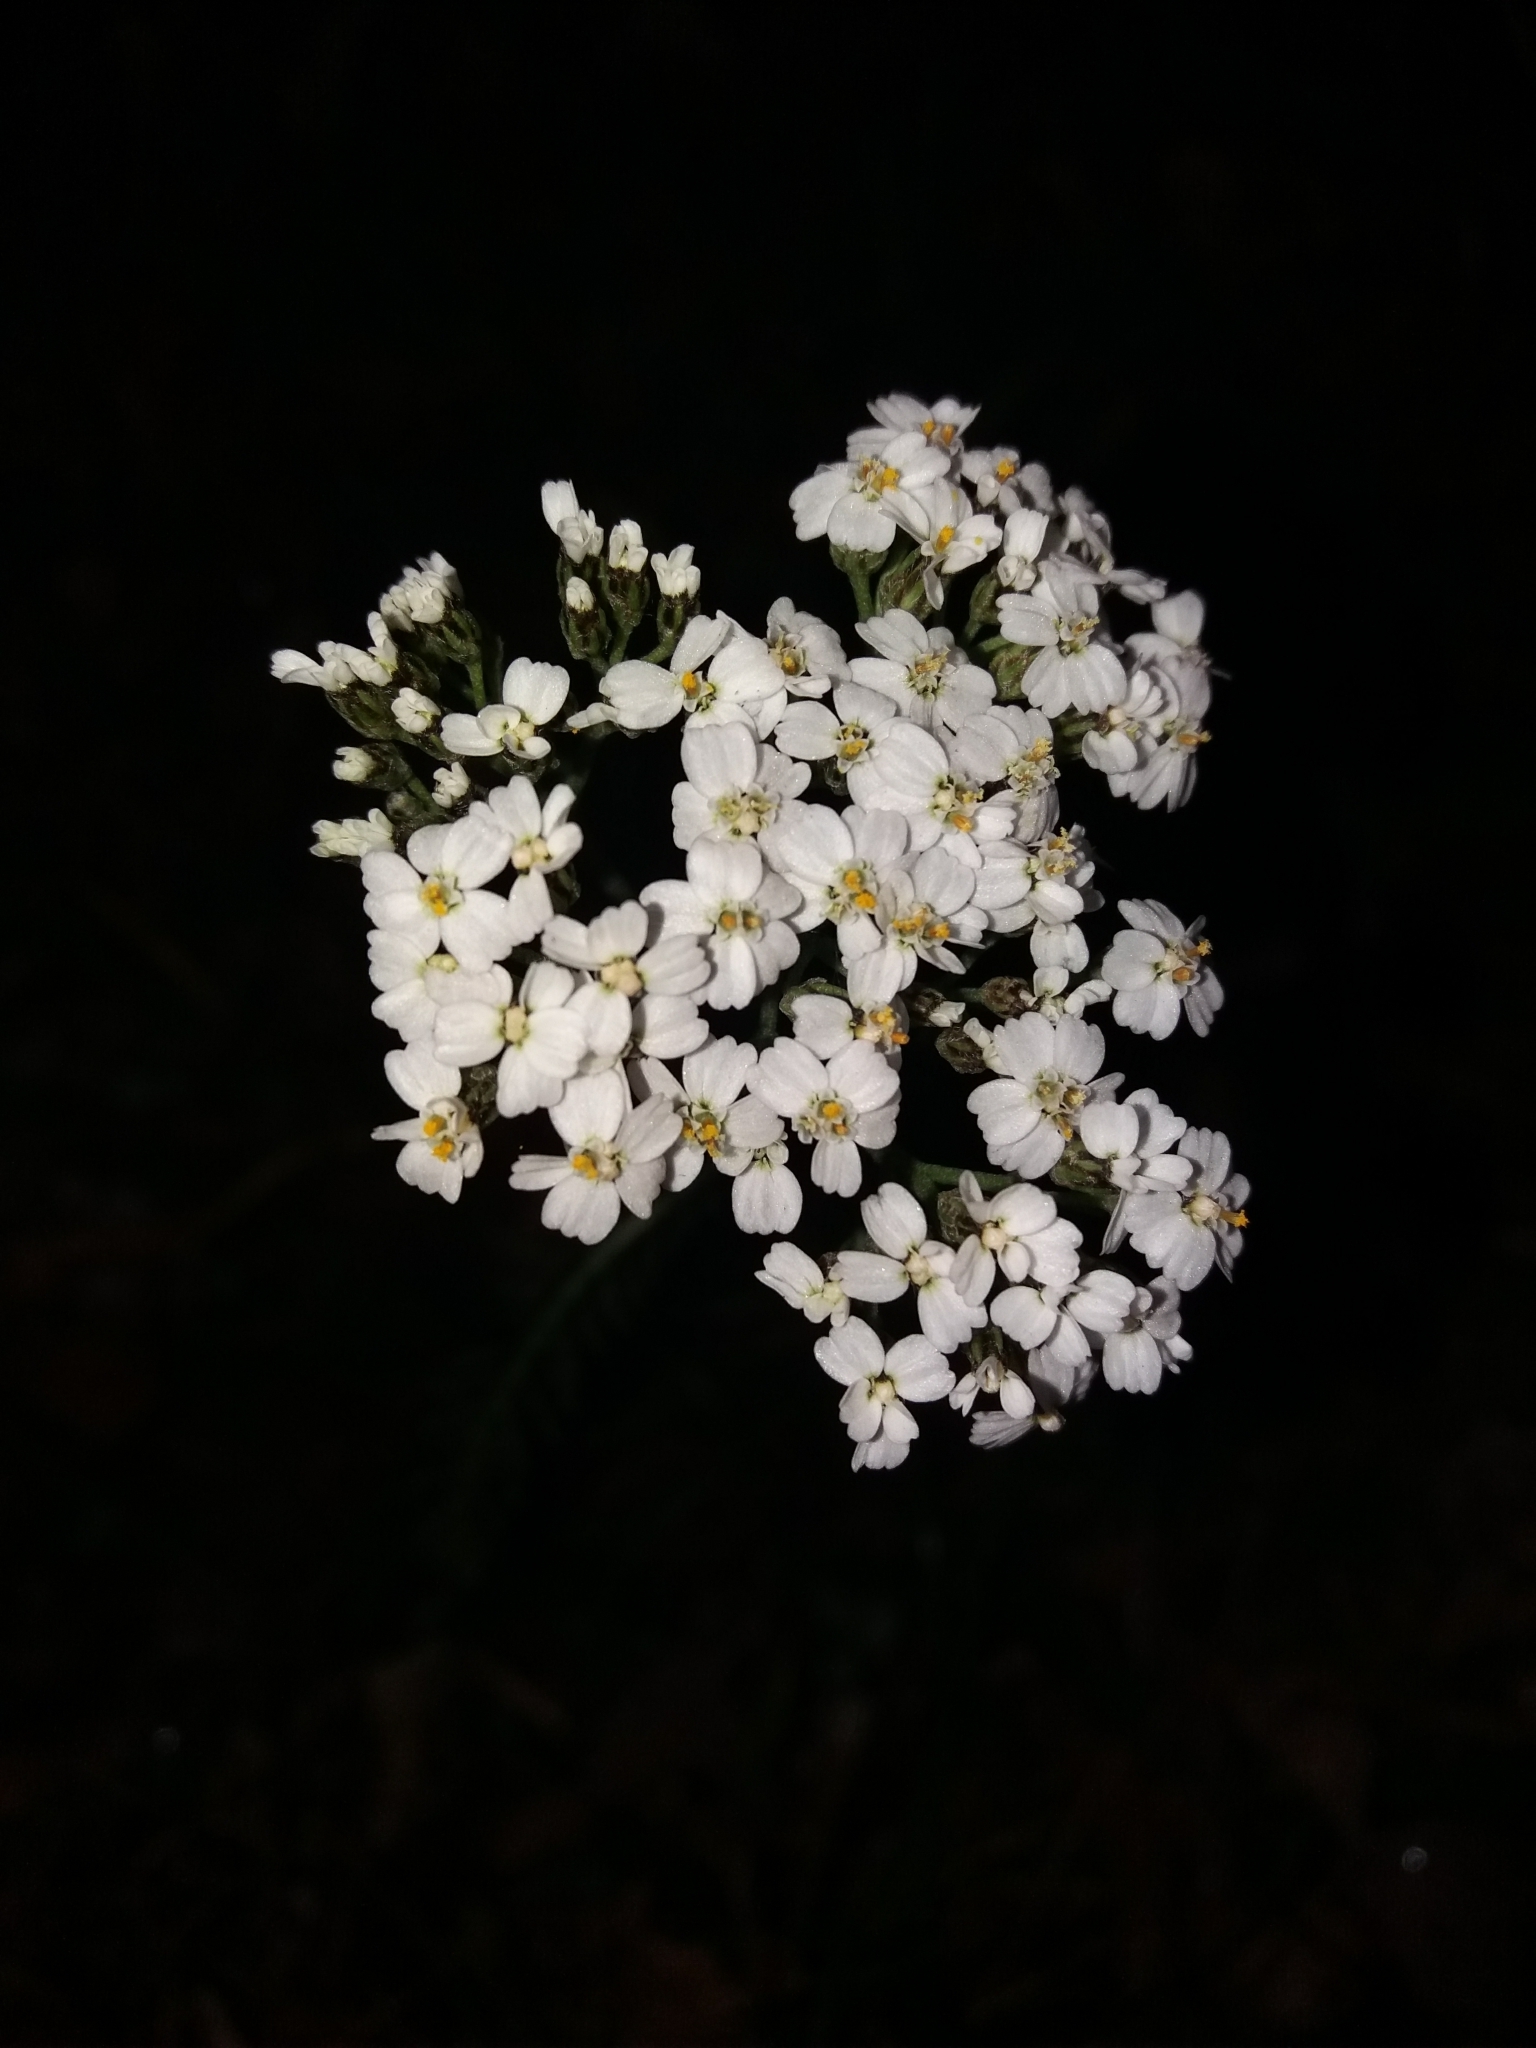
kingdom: Plantae
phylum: Tracheophyta
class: Magnoliopsida
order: Asterales
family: Asteraceae
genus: Achillea
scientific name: Achillea millefolium
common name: Yarrow
